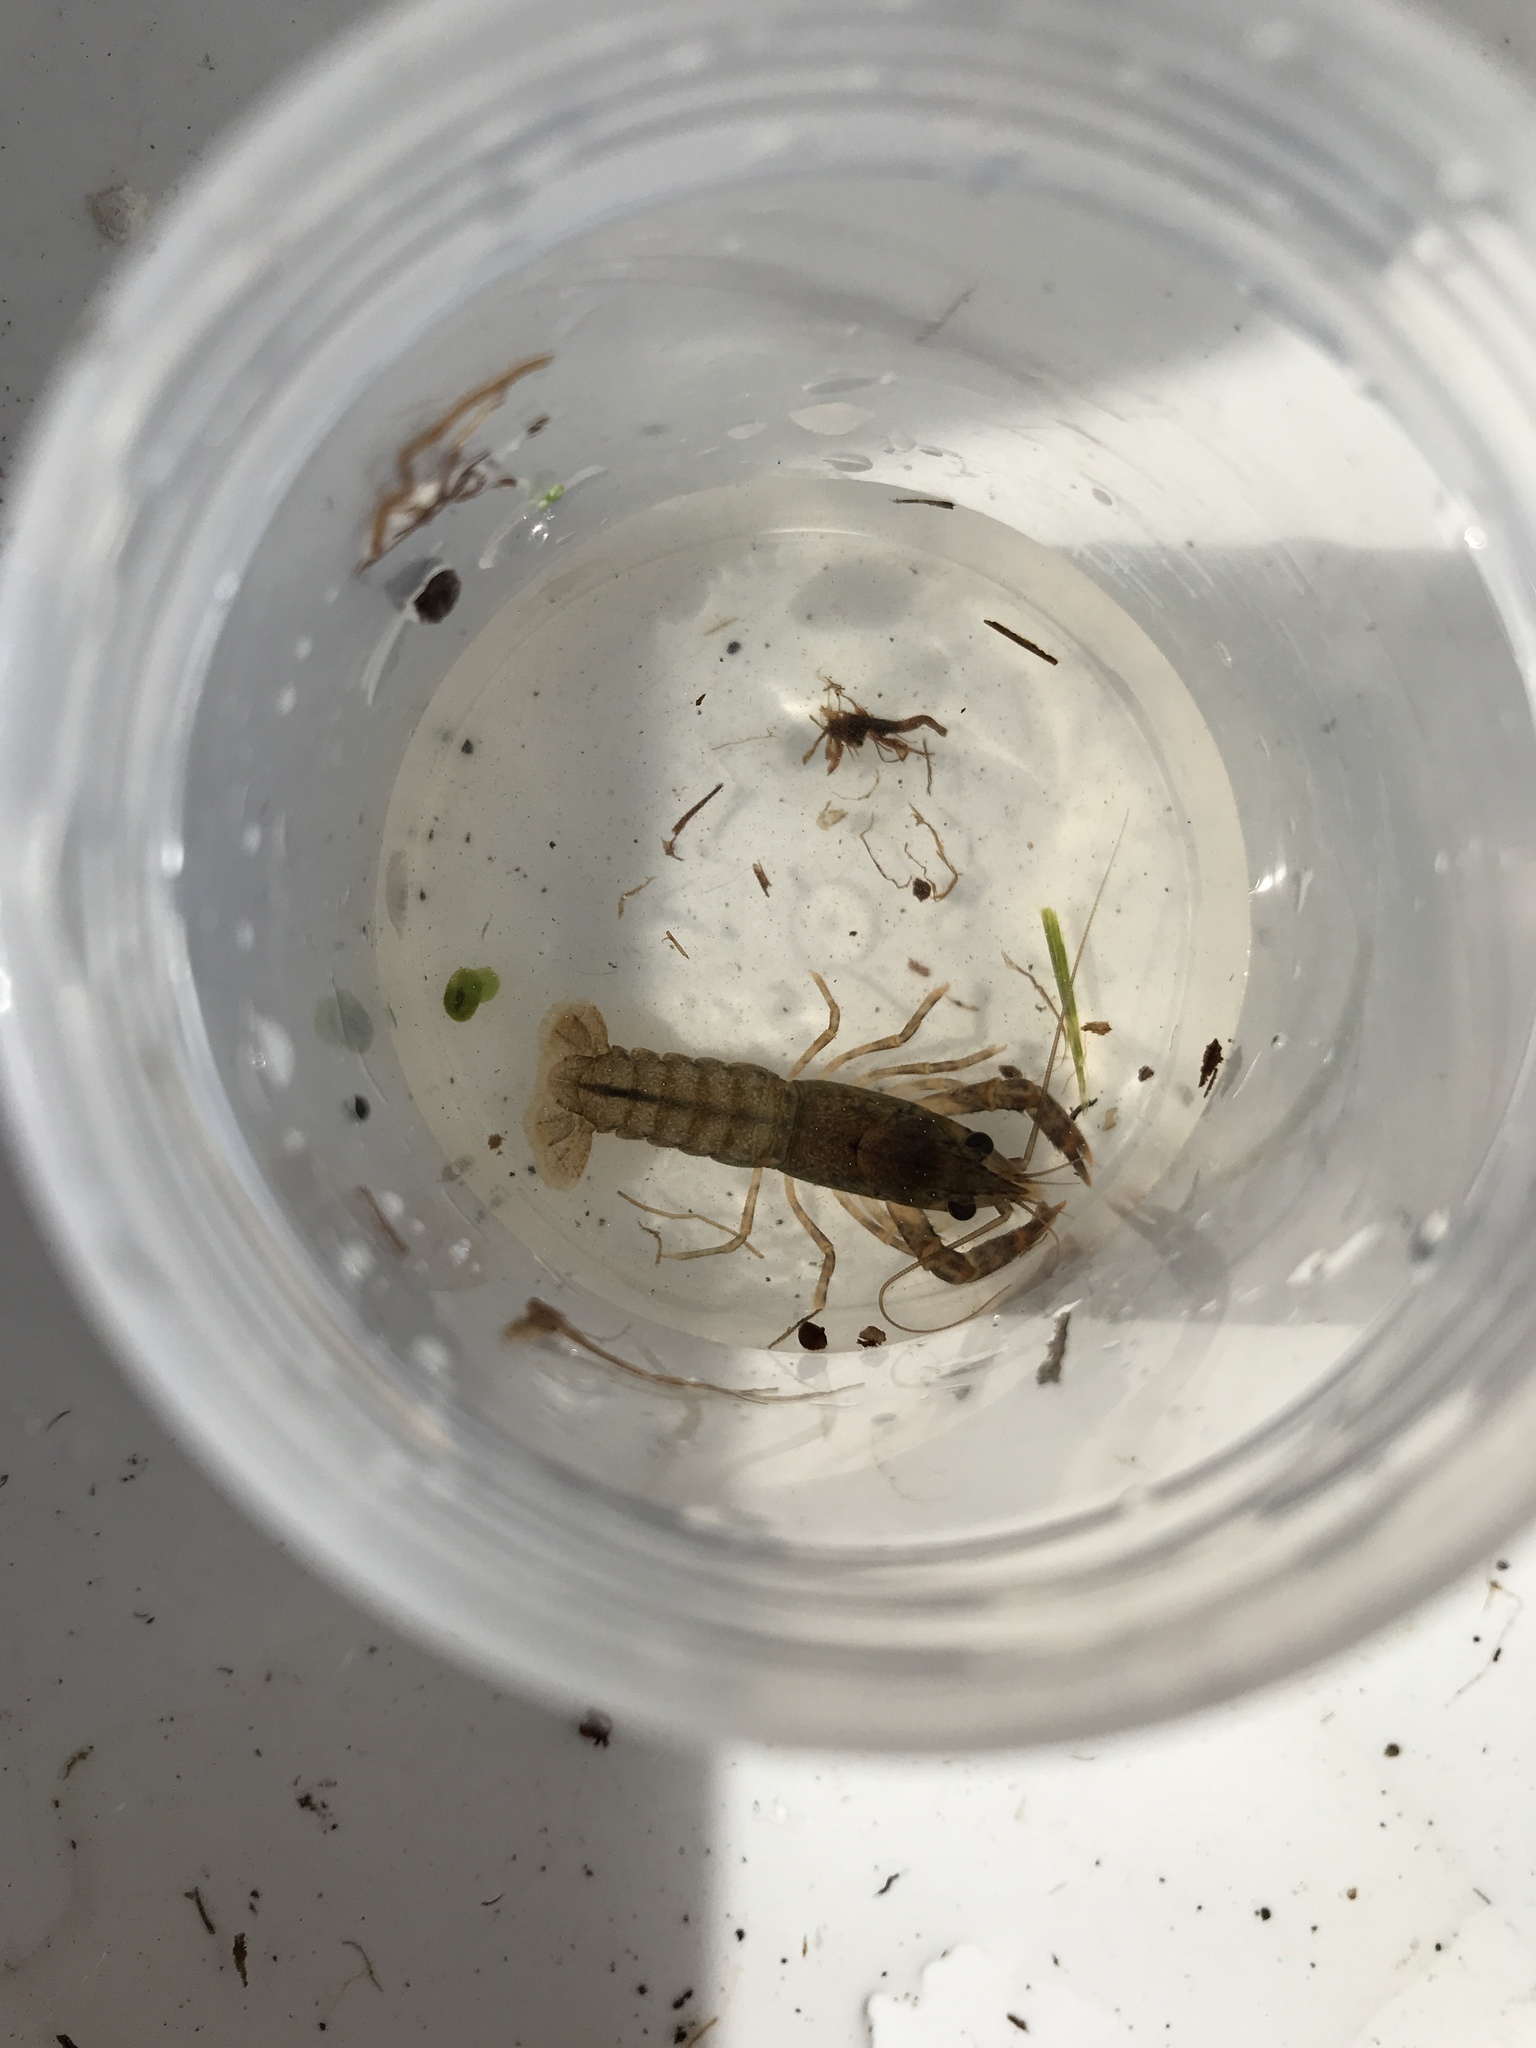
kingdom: Animalia
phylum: Arthropoda
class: Malacostraca
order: Decapoda
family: Parastacidae
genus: Paranephrops
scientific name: Paranephrops planifrons
